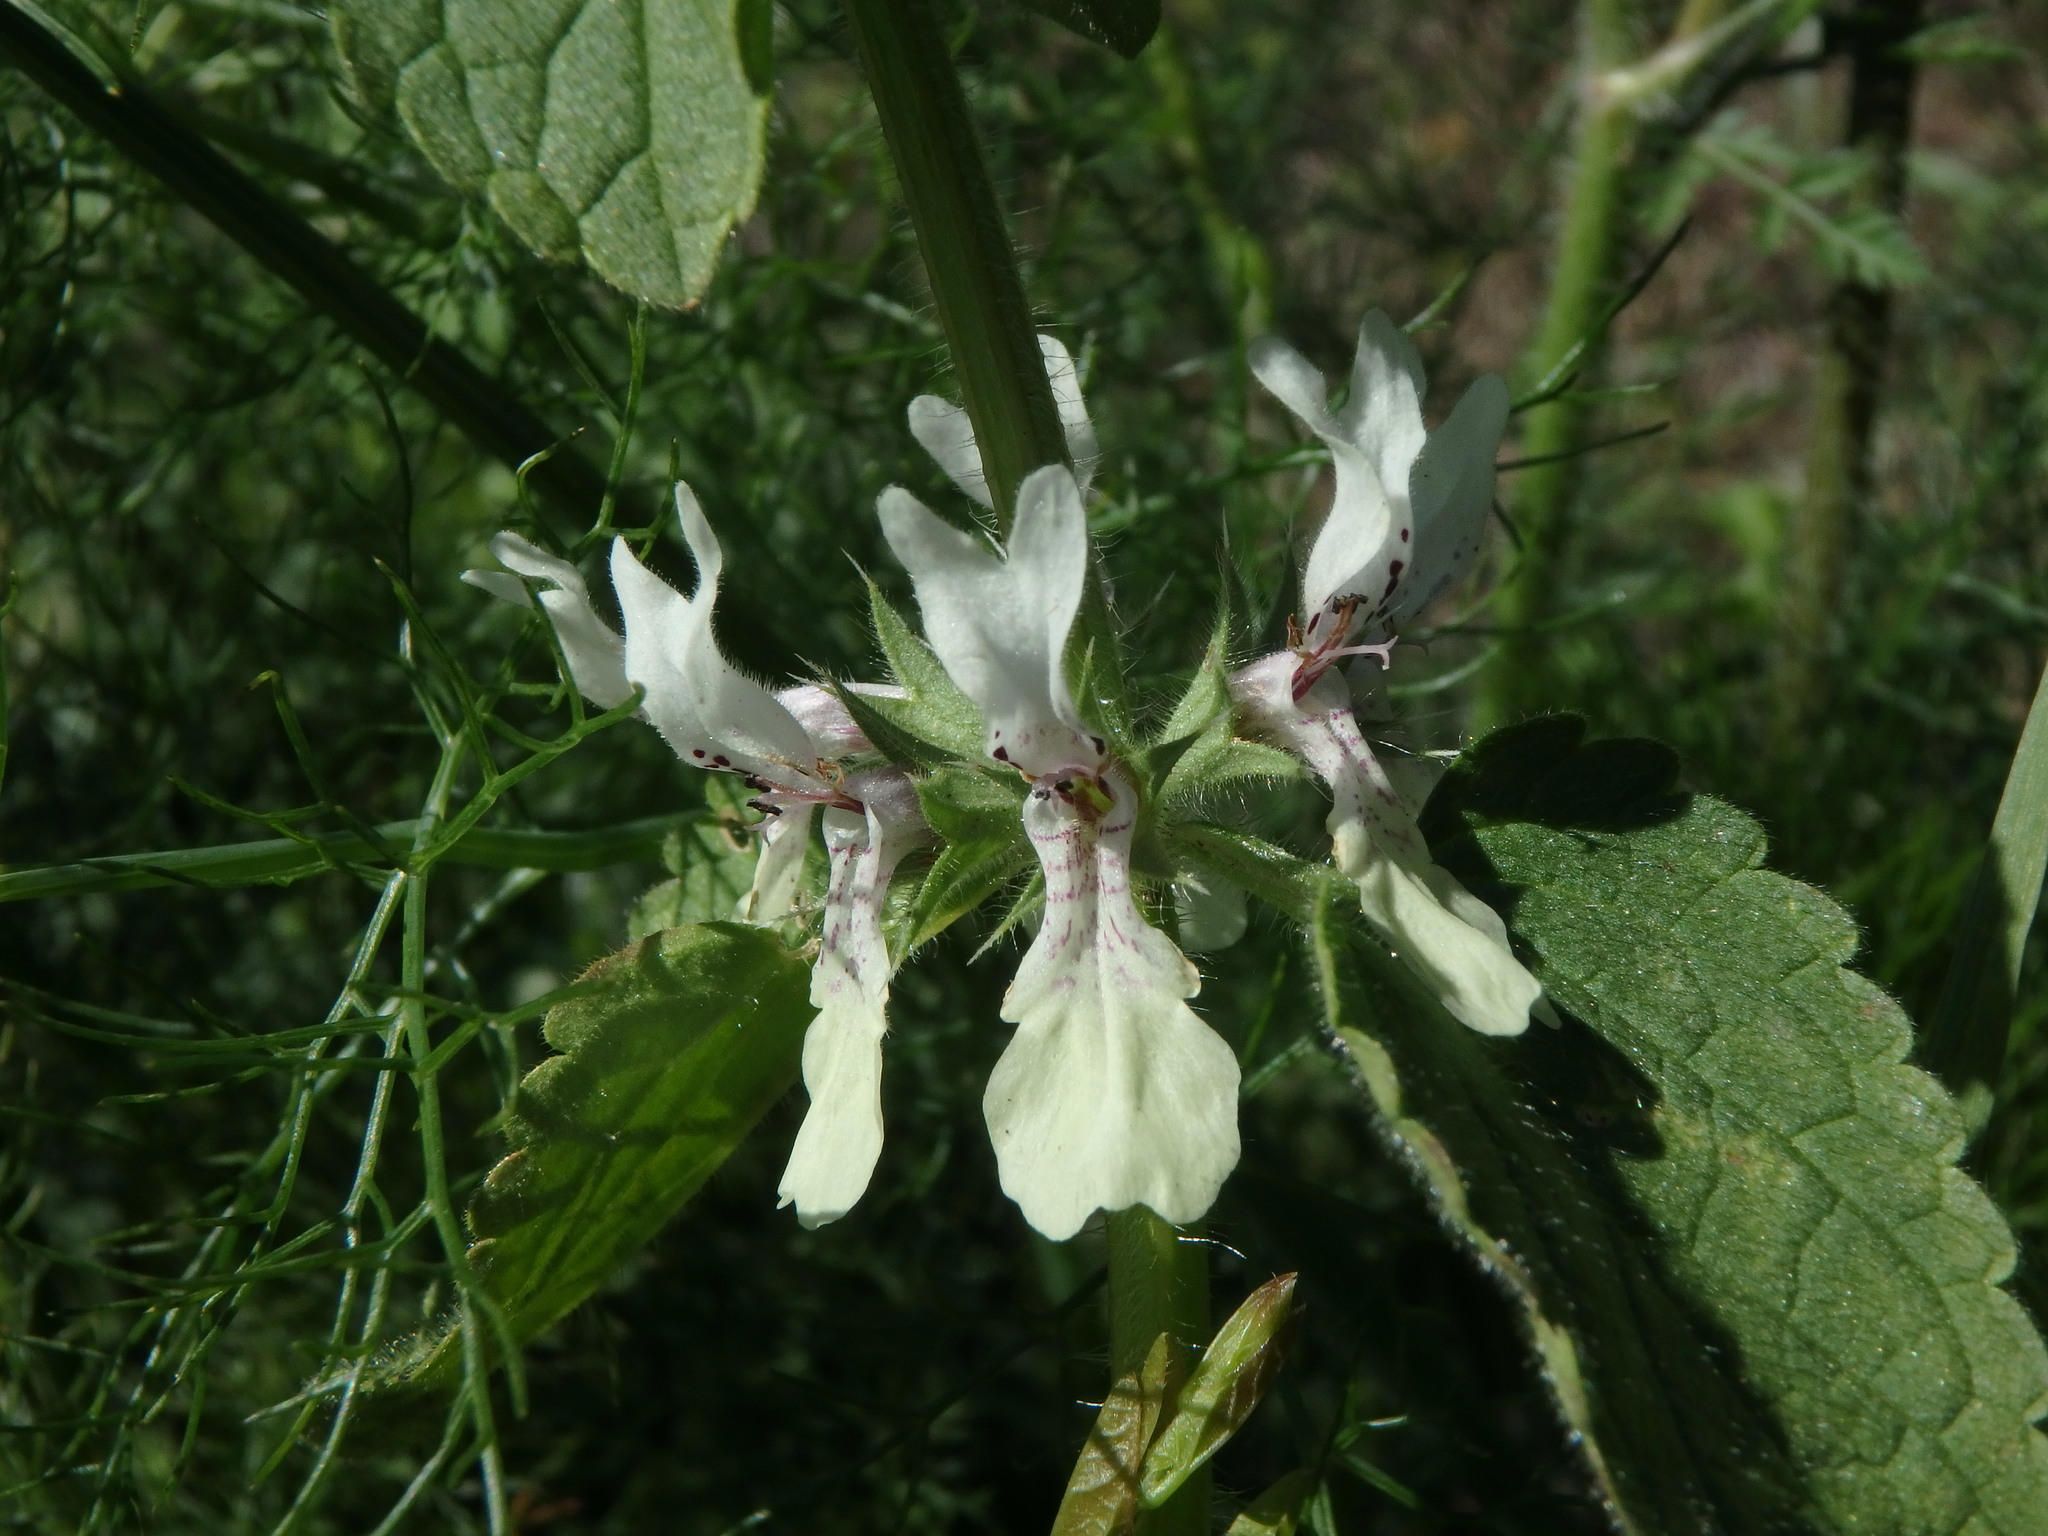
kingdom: Plantae
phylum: Tracheophyta
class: Magnoliopsida
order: Lamiales
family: Lamiaceae
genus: Stachys
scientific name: Stachys ocymastrum
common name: Italian hedgenettle
